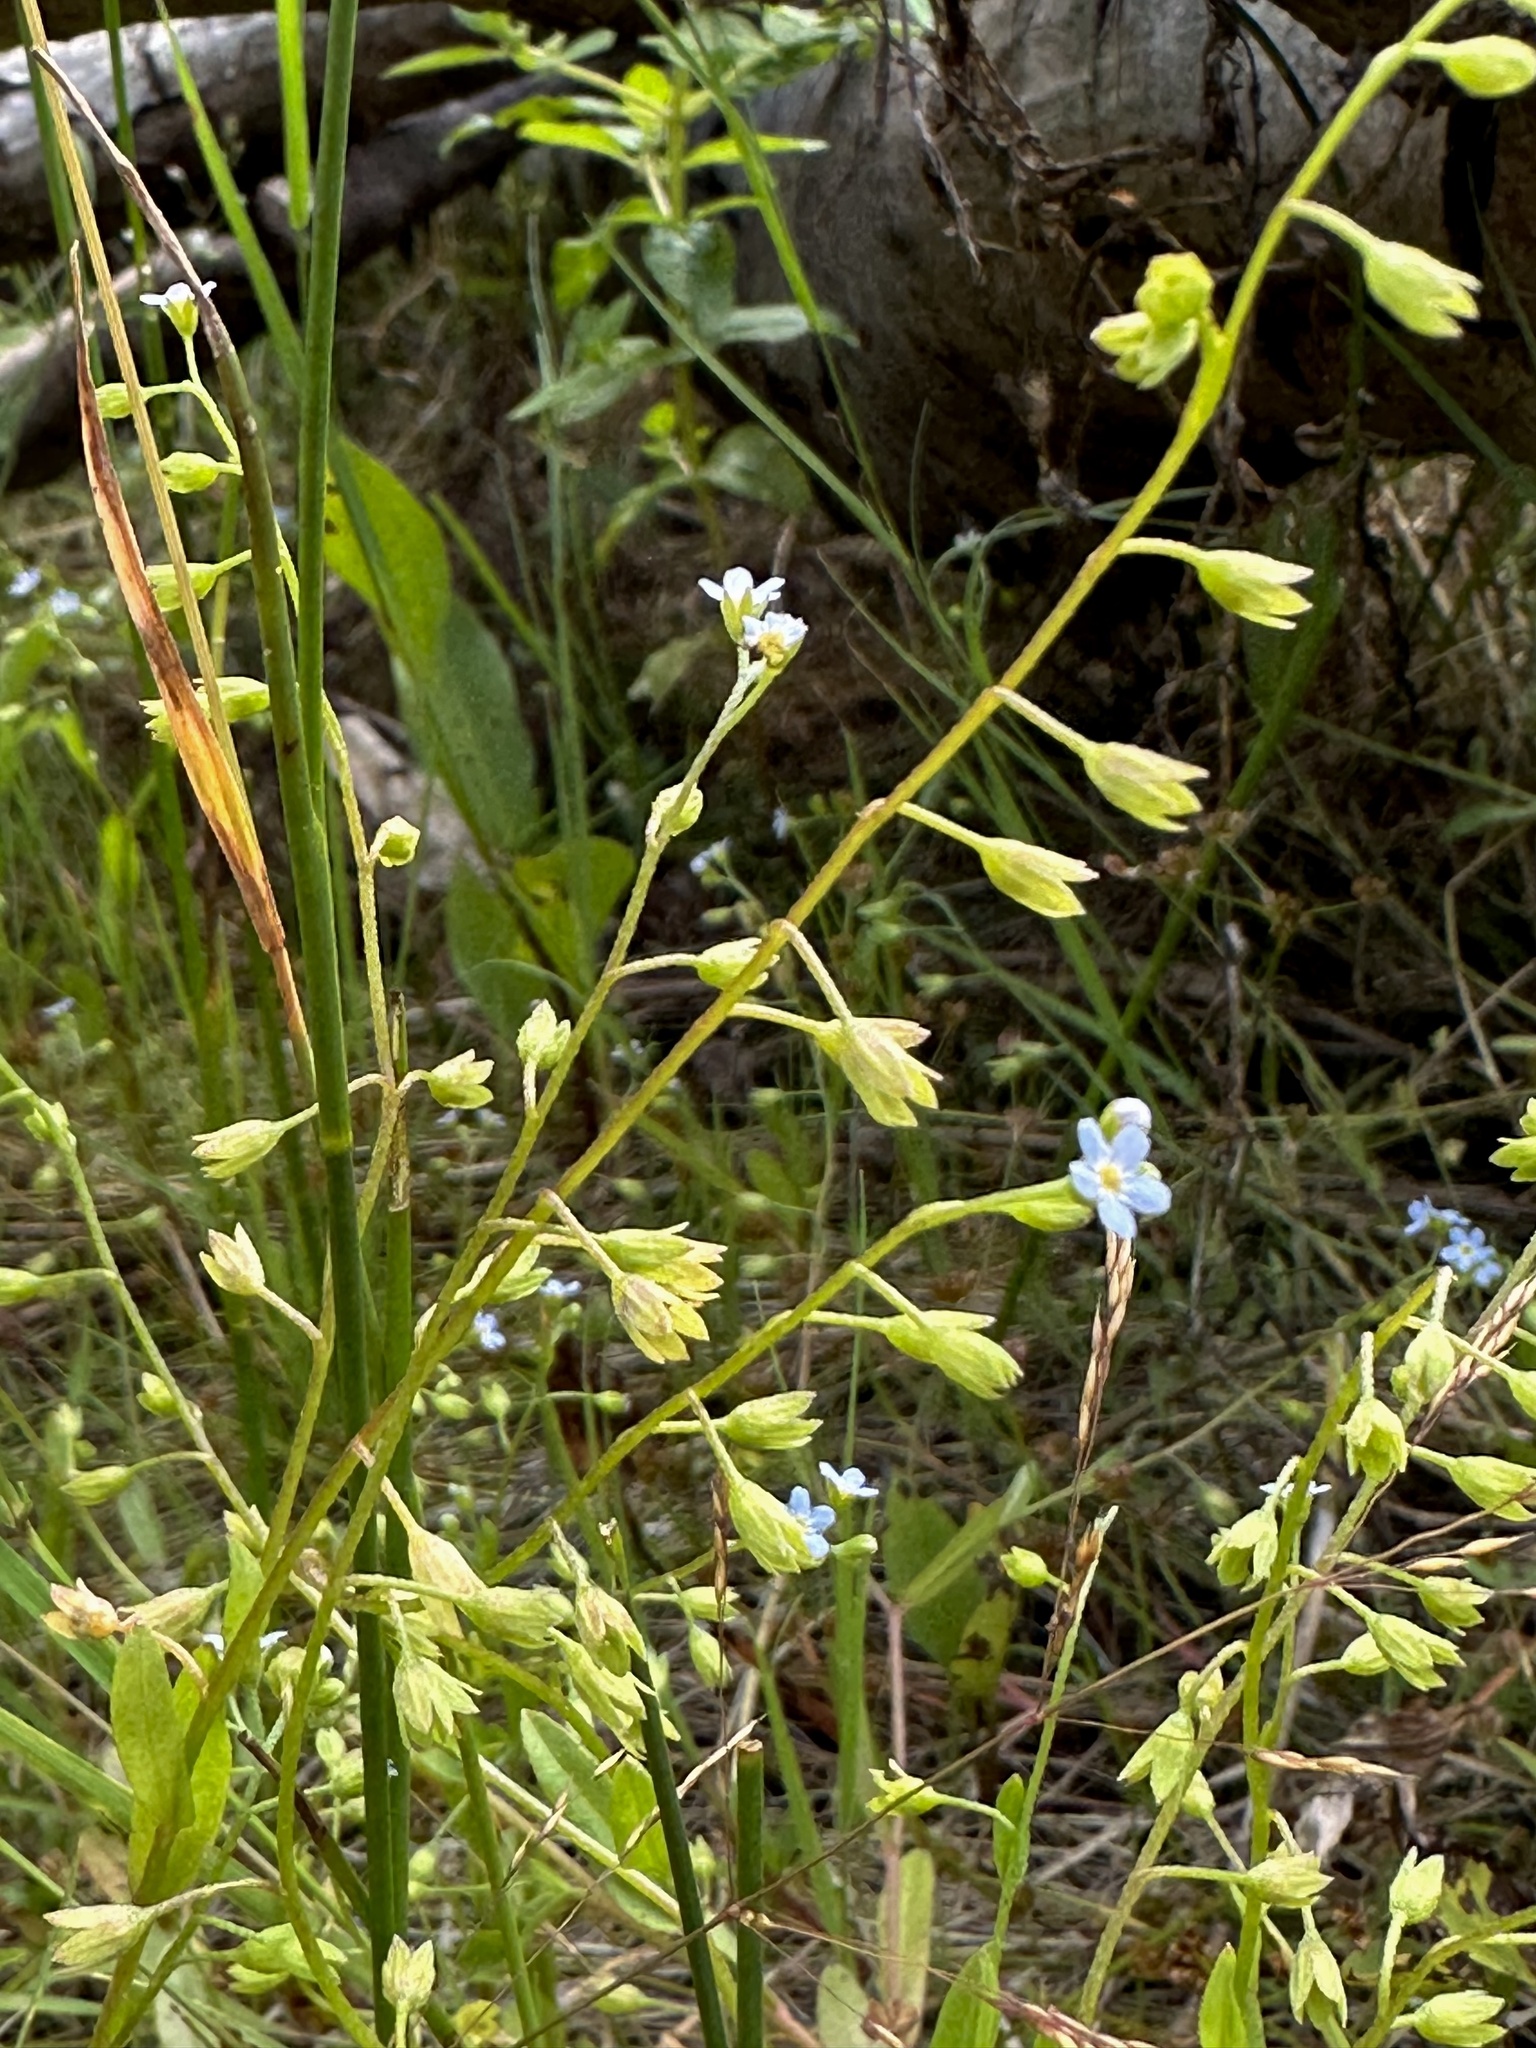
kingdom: Plantae
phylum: Tracheophyta
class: Magnoliopsida
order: Boraginales
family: Boraginaceae
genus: Myosotis
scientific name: Myosotis scorpioides
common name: Water forget-me-not
